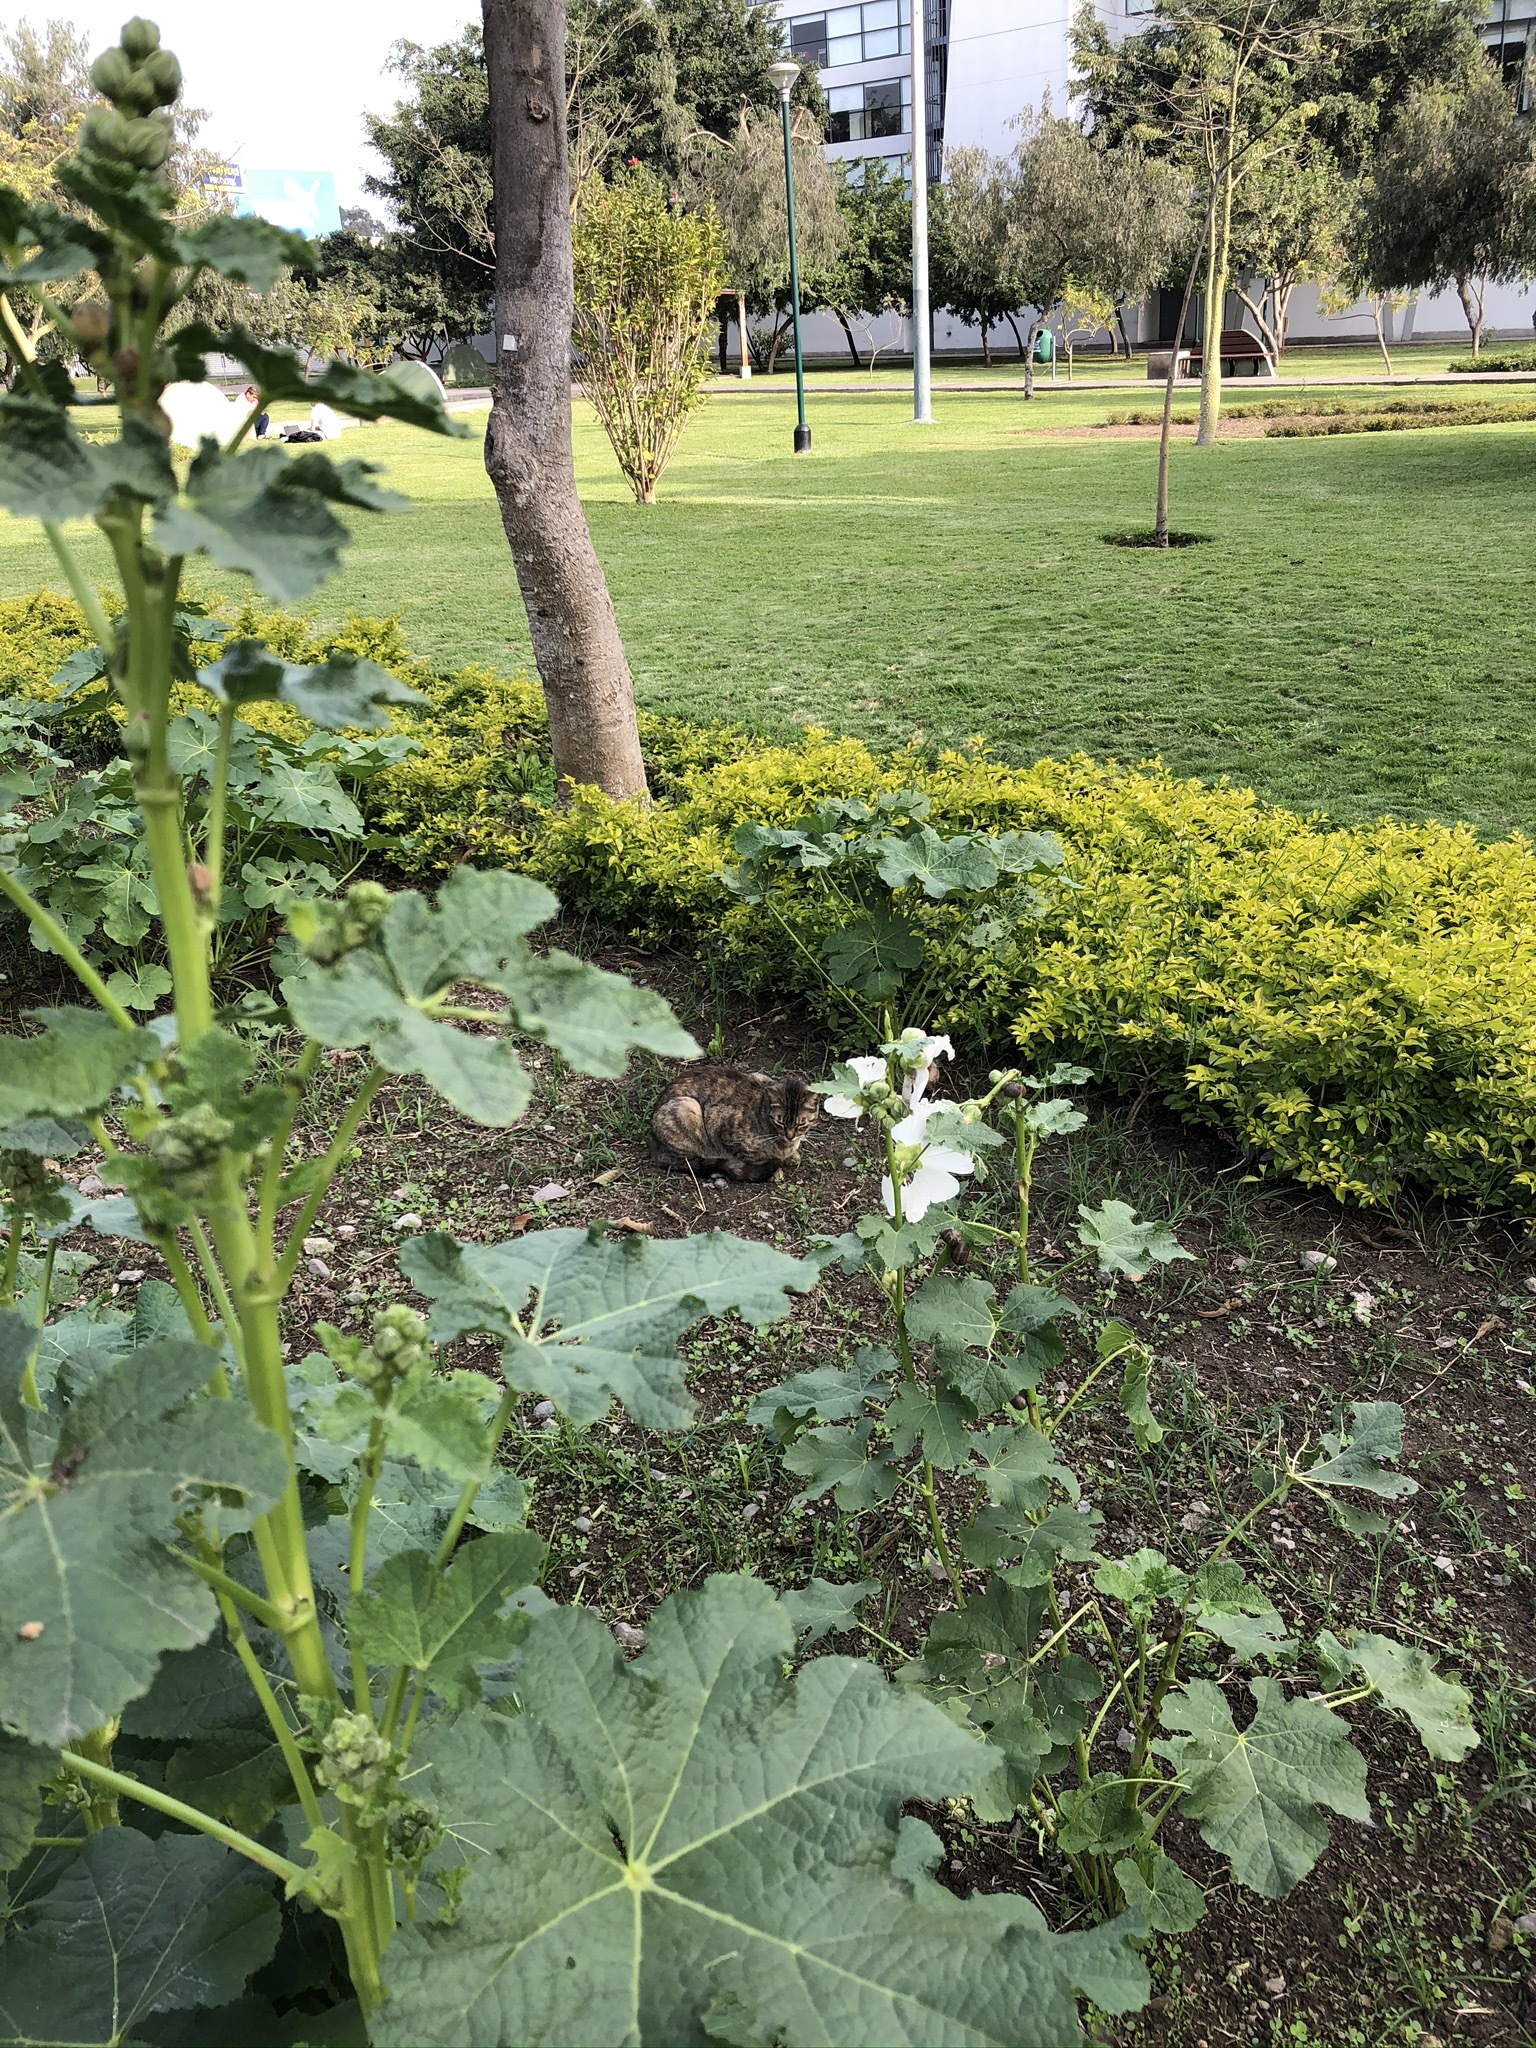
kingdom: Animalia
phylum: Chordata
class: Mammalia
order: Carnivora
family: Felidae
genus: Felis
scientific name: Felis catus
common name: Domestic cat
